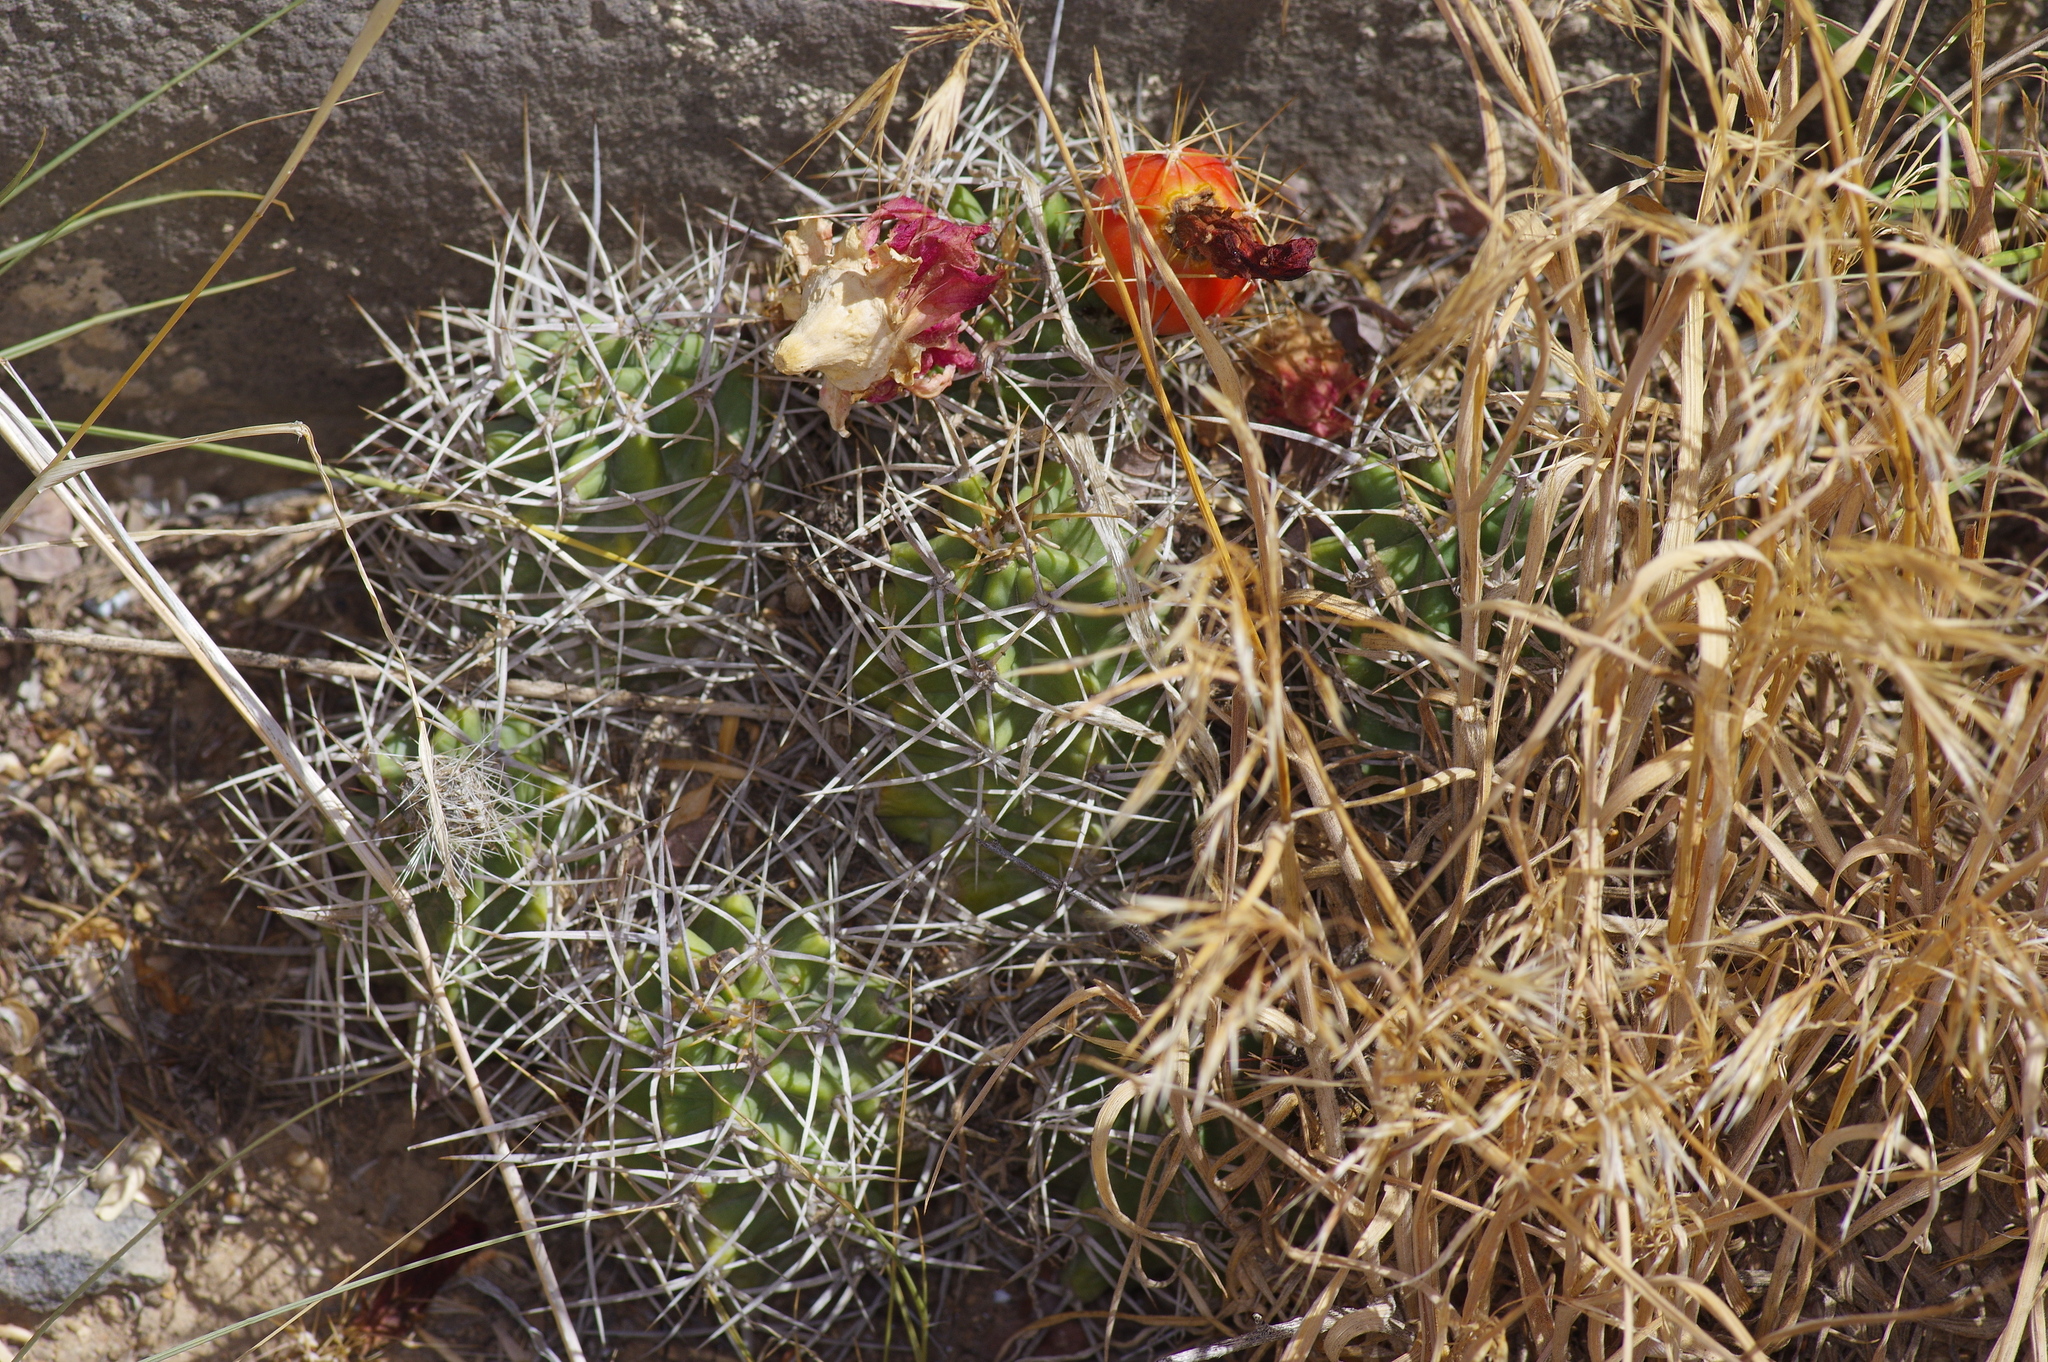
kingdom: Plantae
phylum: Tracheophyta
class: Magnoliopsida
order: Caryophyllales
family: Cactaceae
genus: Echinocereus
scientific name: Echinocereus triglochidiatus
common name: Claretcup hedgehog
